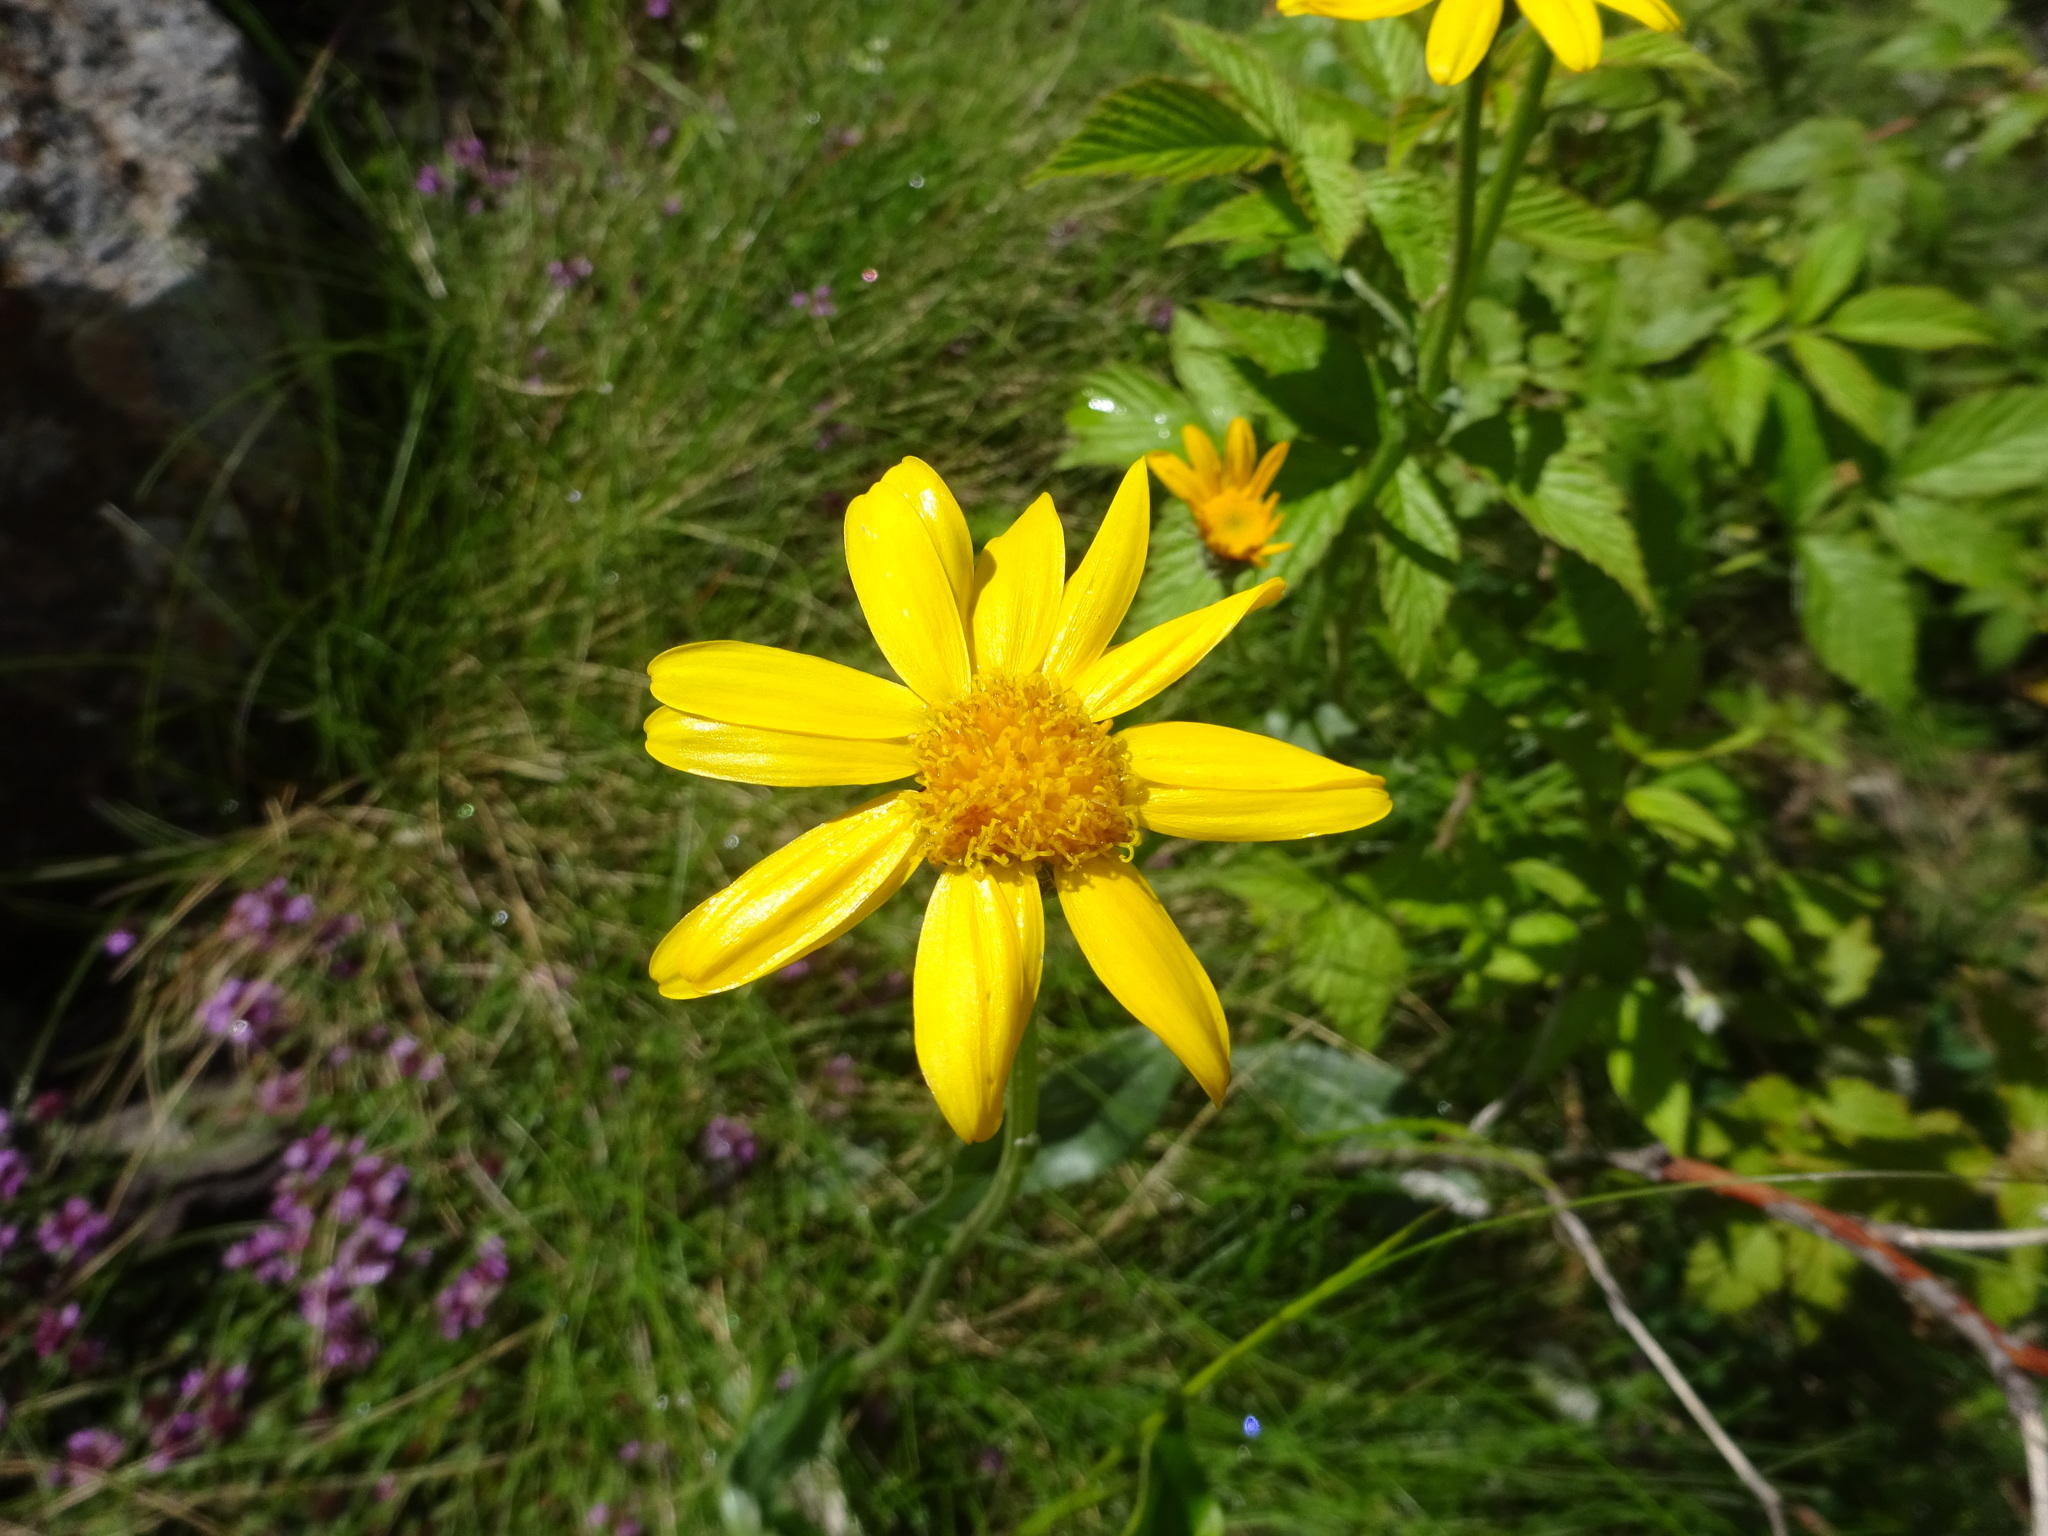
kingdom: Plantae
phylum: Tracheophyta
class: Magnoliopsida
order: Asterales
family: Asteraceae
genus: Arnica
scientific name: Arnica montana
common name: Leopard's bane
